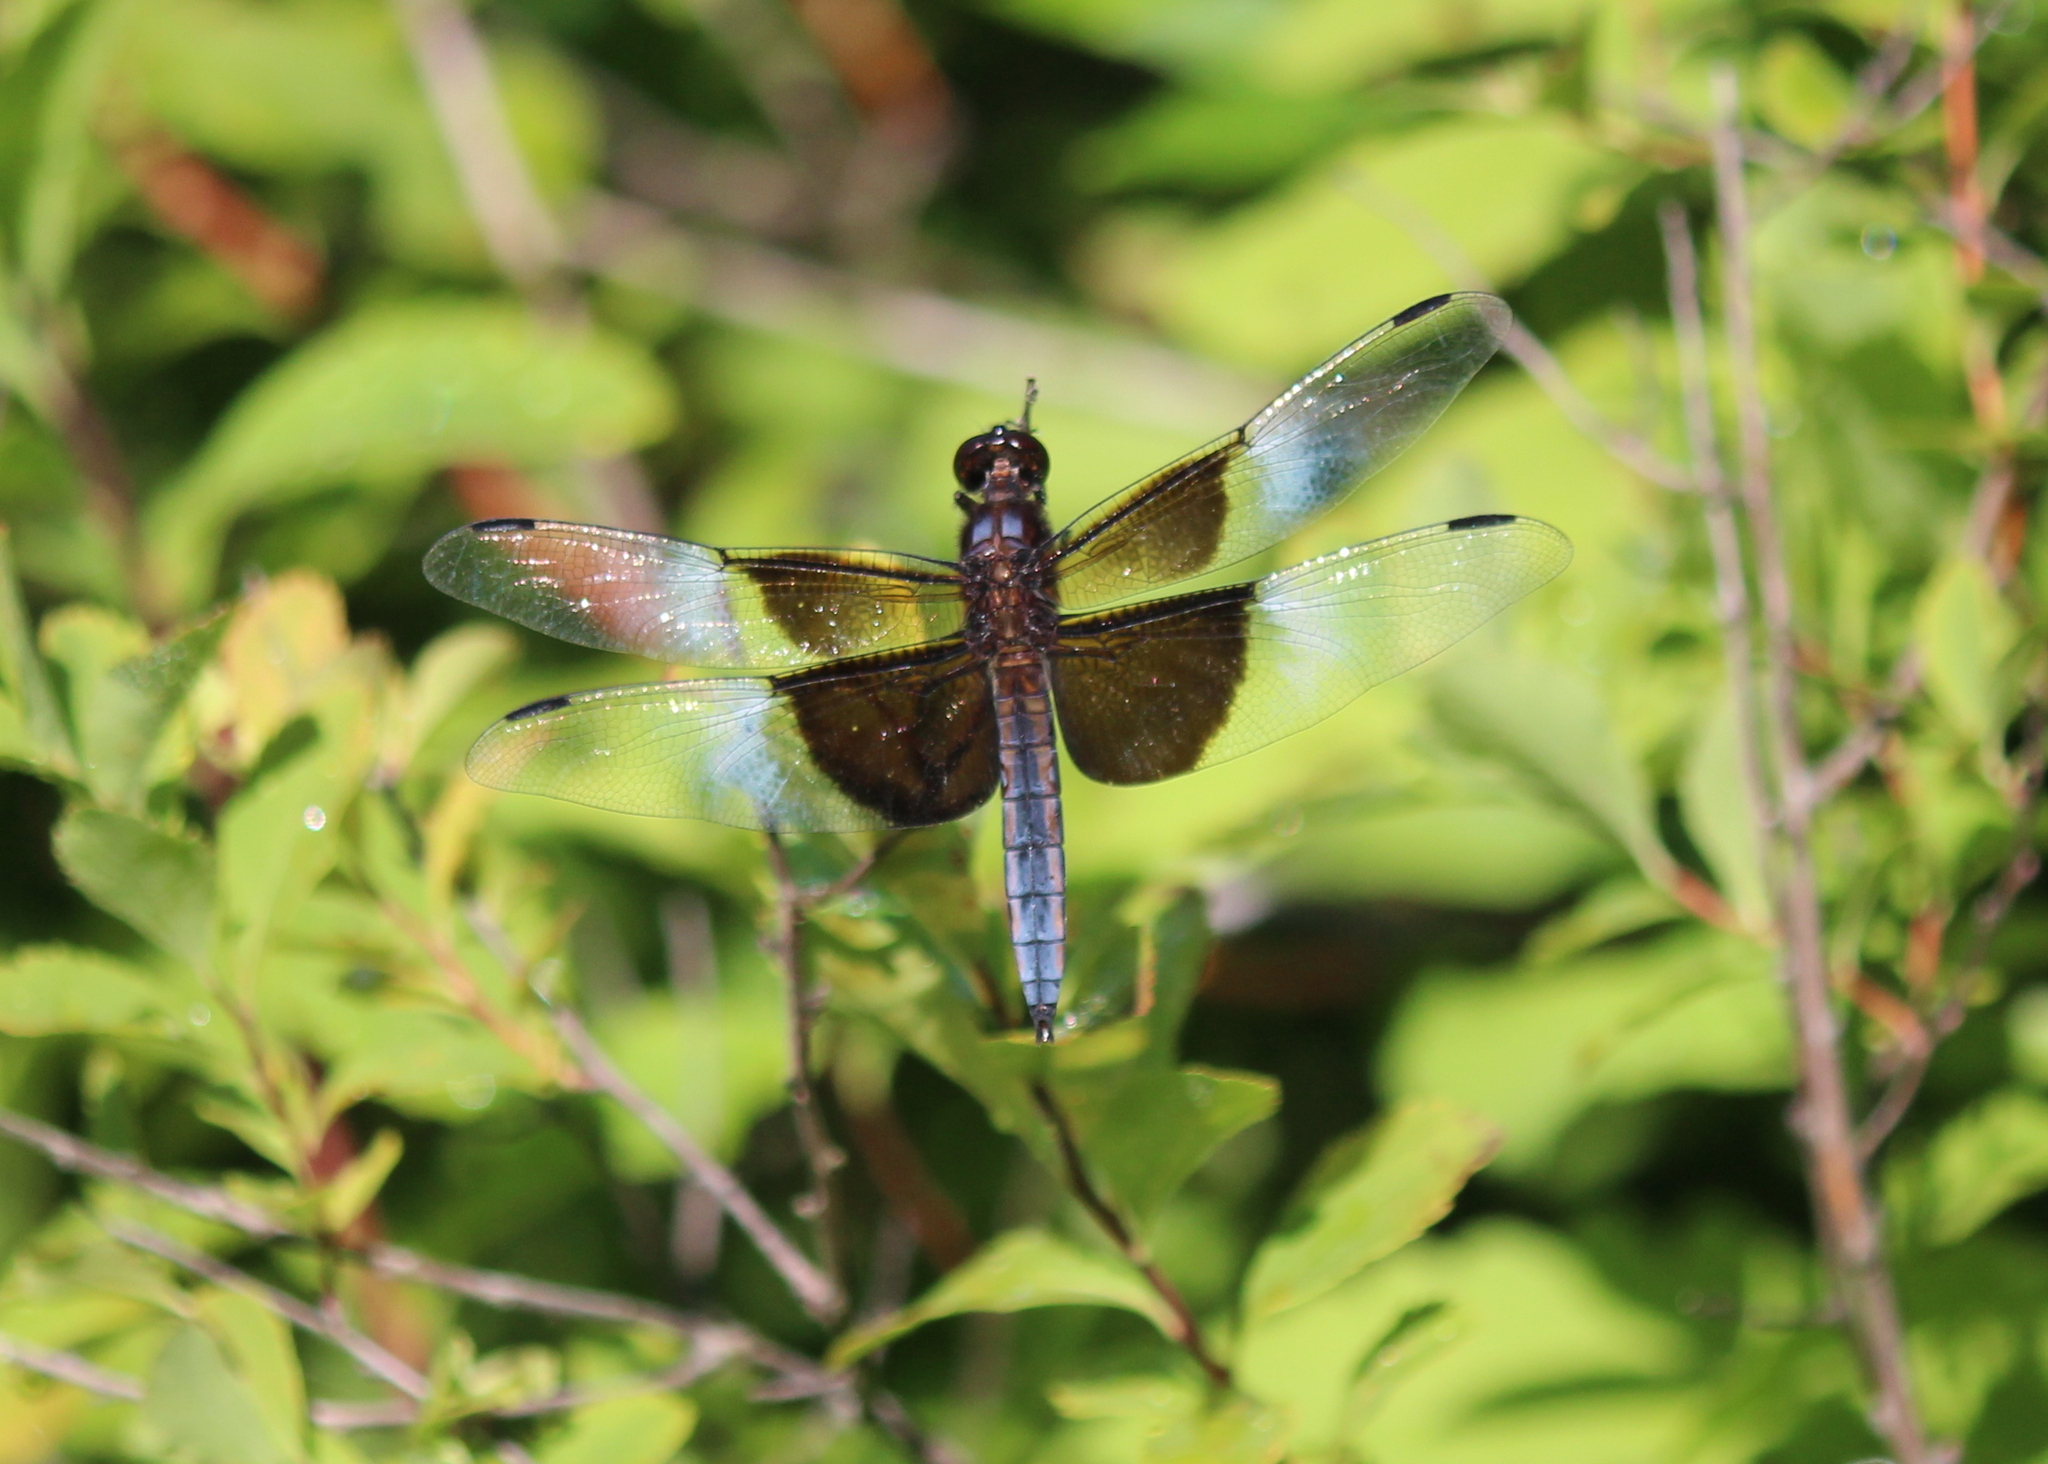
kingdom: Animalia
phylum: Arthropoda
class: Insecta
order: Odonata
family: Libellulidae
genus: Libellula
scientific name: Libellula luctuosa
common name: Widow skimmer
